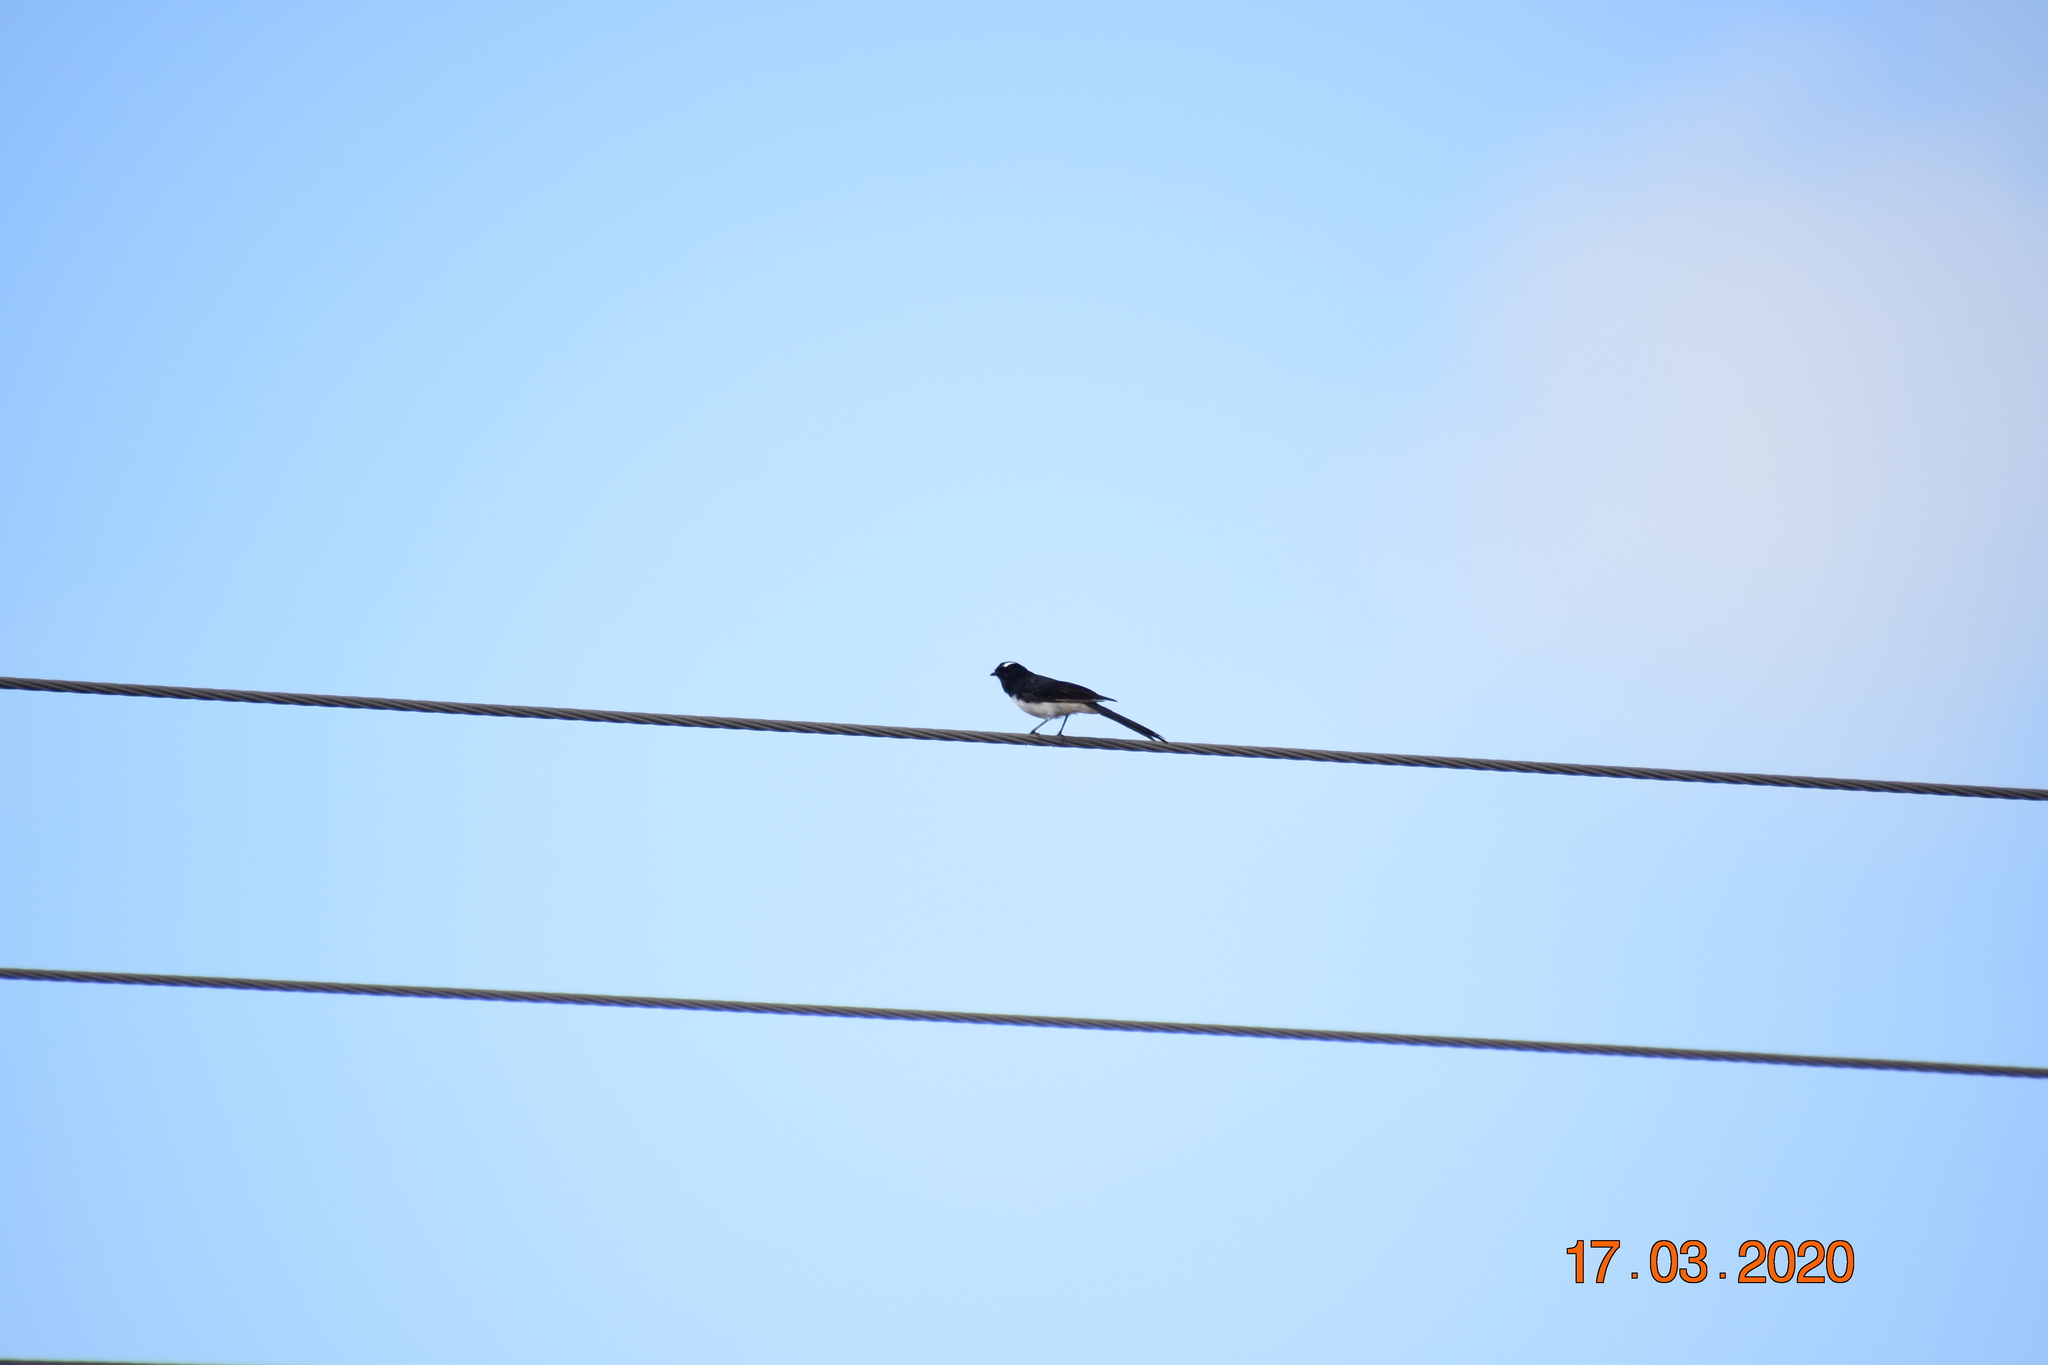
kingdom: Animalia
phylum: Chordata
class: Aves
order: Passeriformes
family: Rhipiduridae
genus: Rhipidura
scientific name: Rhipidura leucophrys
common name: Willie wagtail
